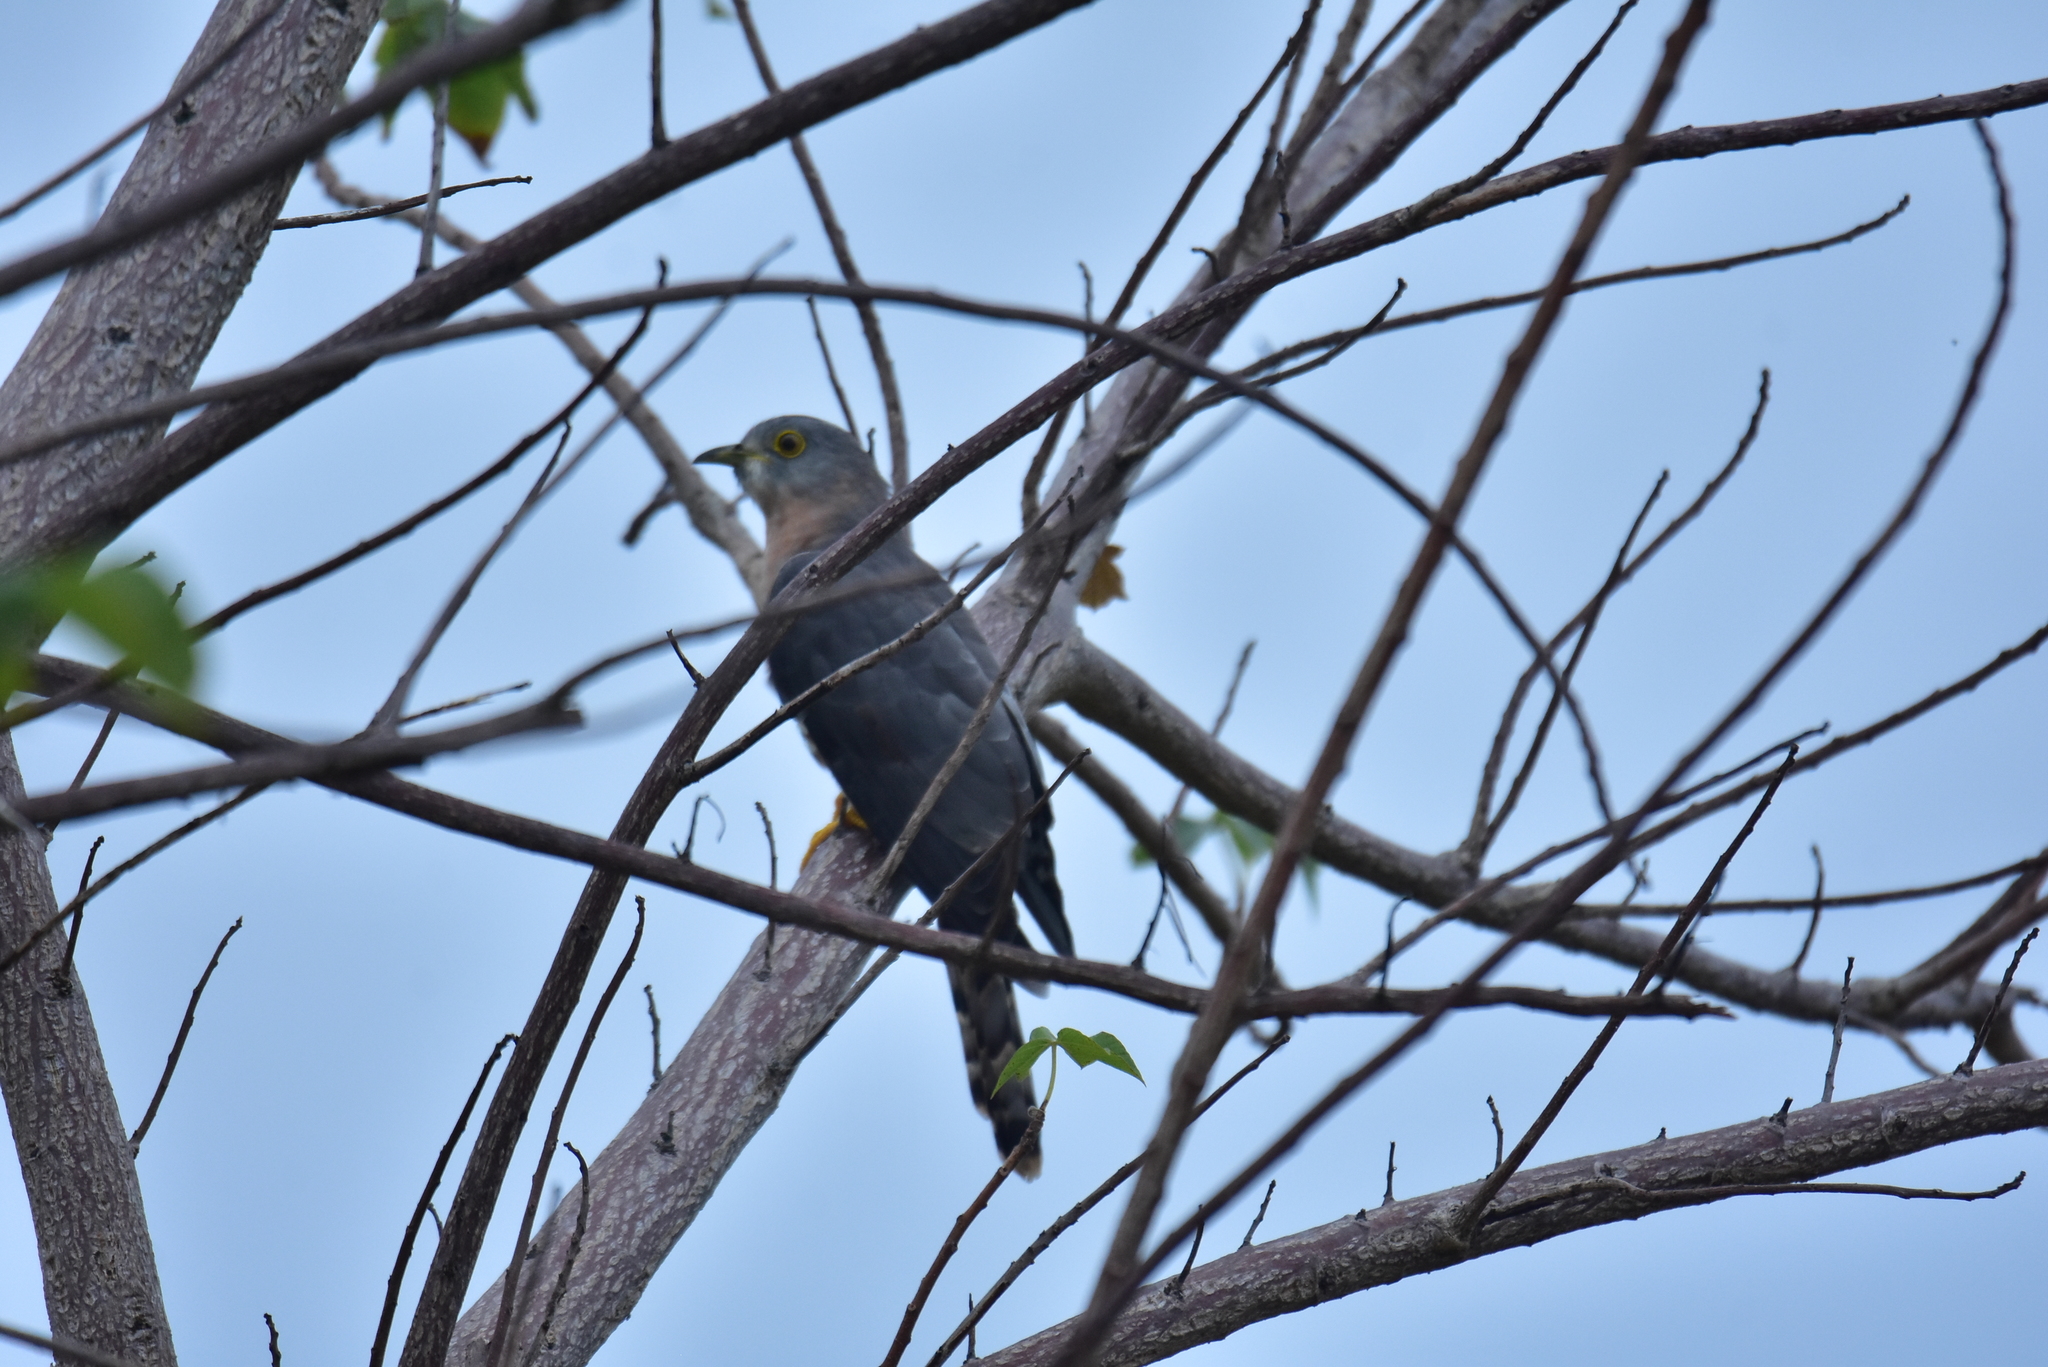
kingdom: Animalia
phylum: Chordata
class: Aves
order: Cuculiformes
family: Cuculidae
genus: Cuculus
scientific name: Cuculus varius
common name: Common hawk cuckoo
